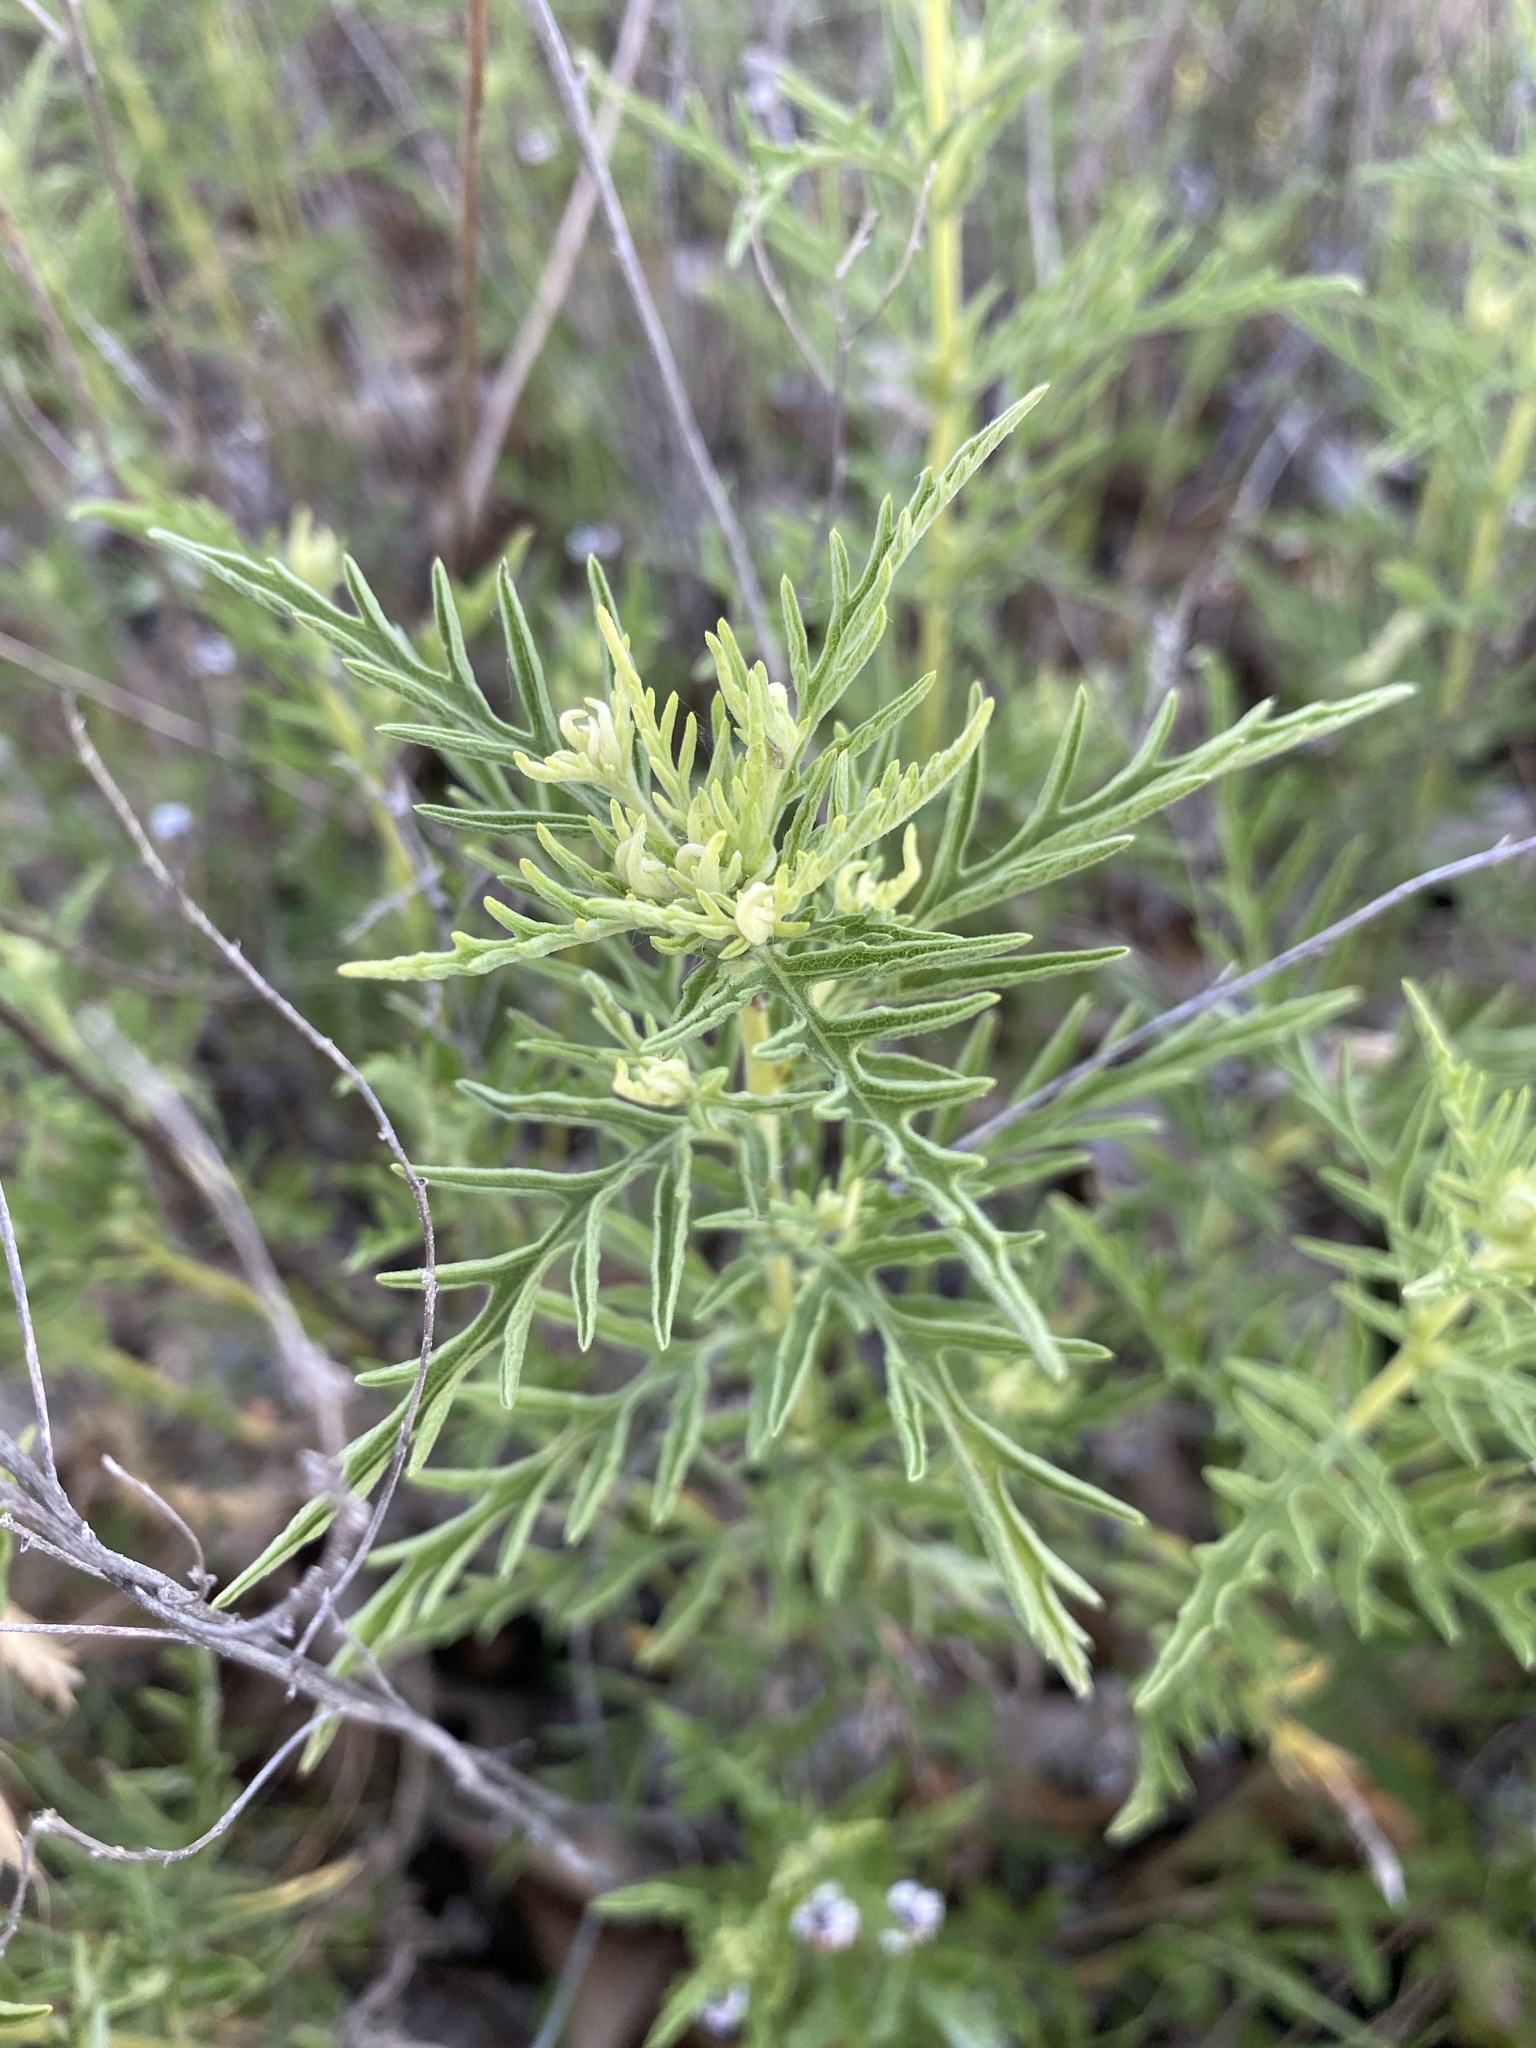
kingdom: Plantae
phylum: Tracheophyta
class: Magnoliopsida
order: Asterales
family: Asteraceae
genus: Ambrosia
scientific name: Ambrosia psilostachya
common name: Perennial ragweed
